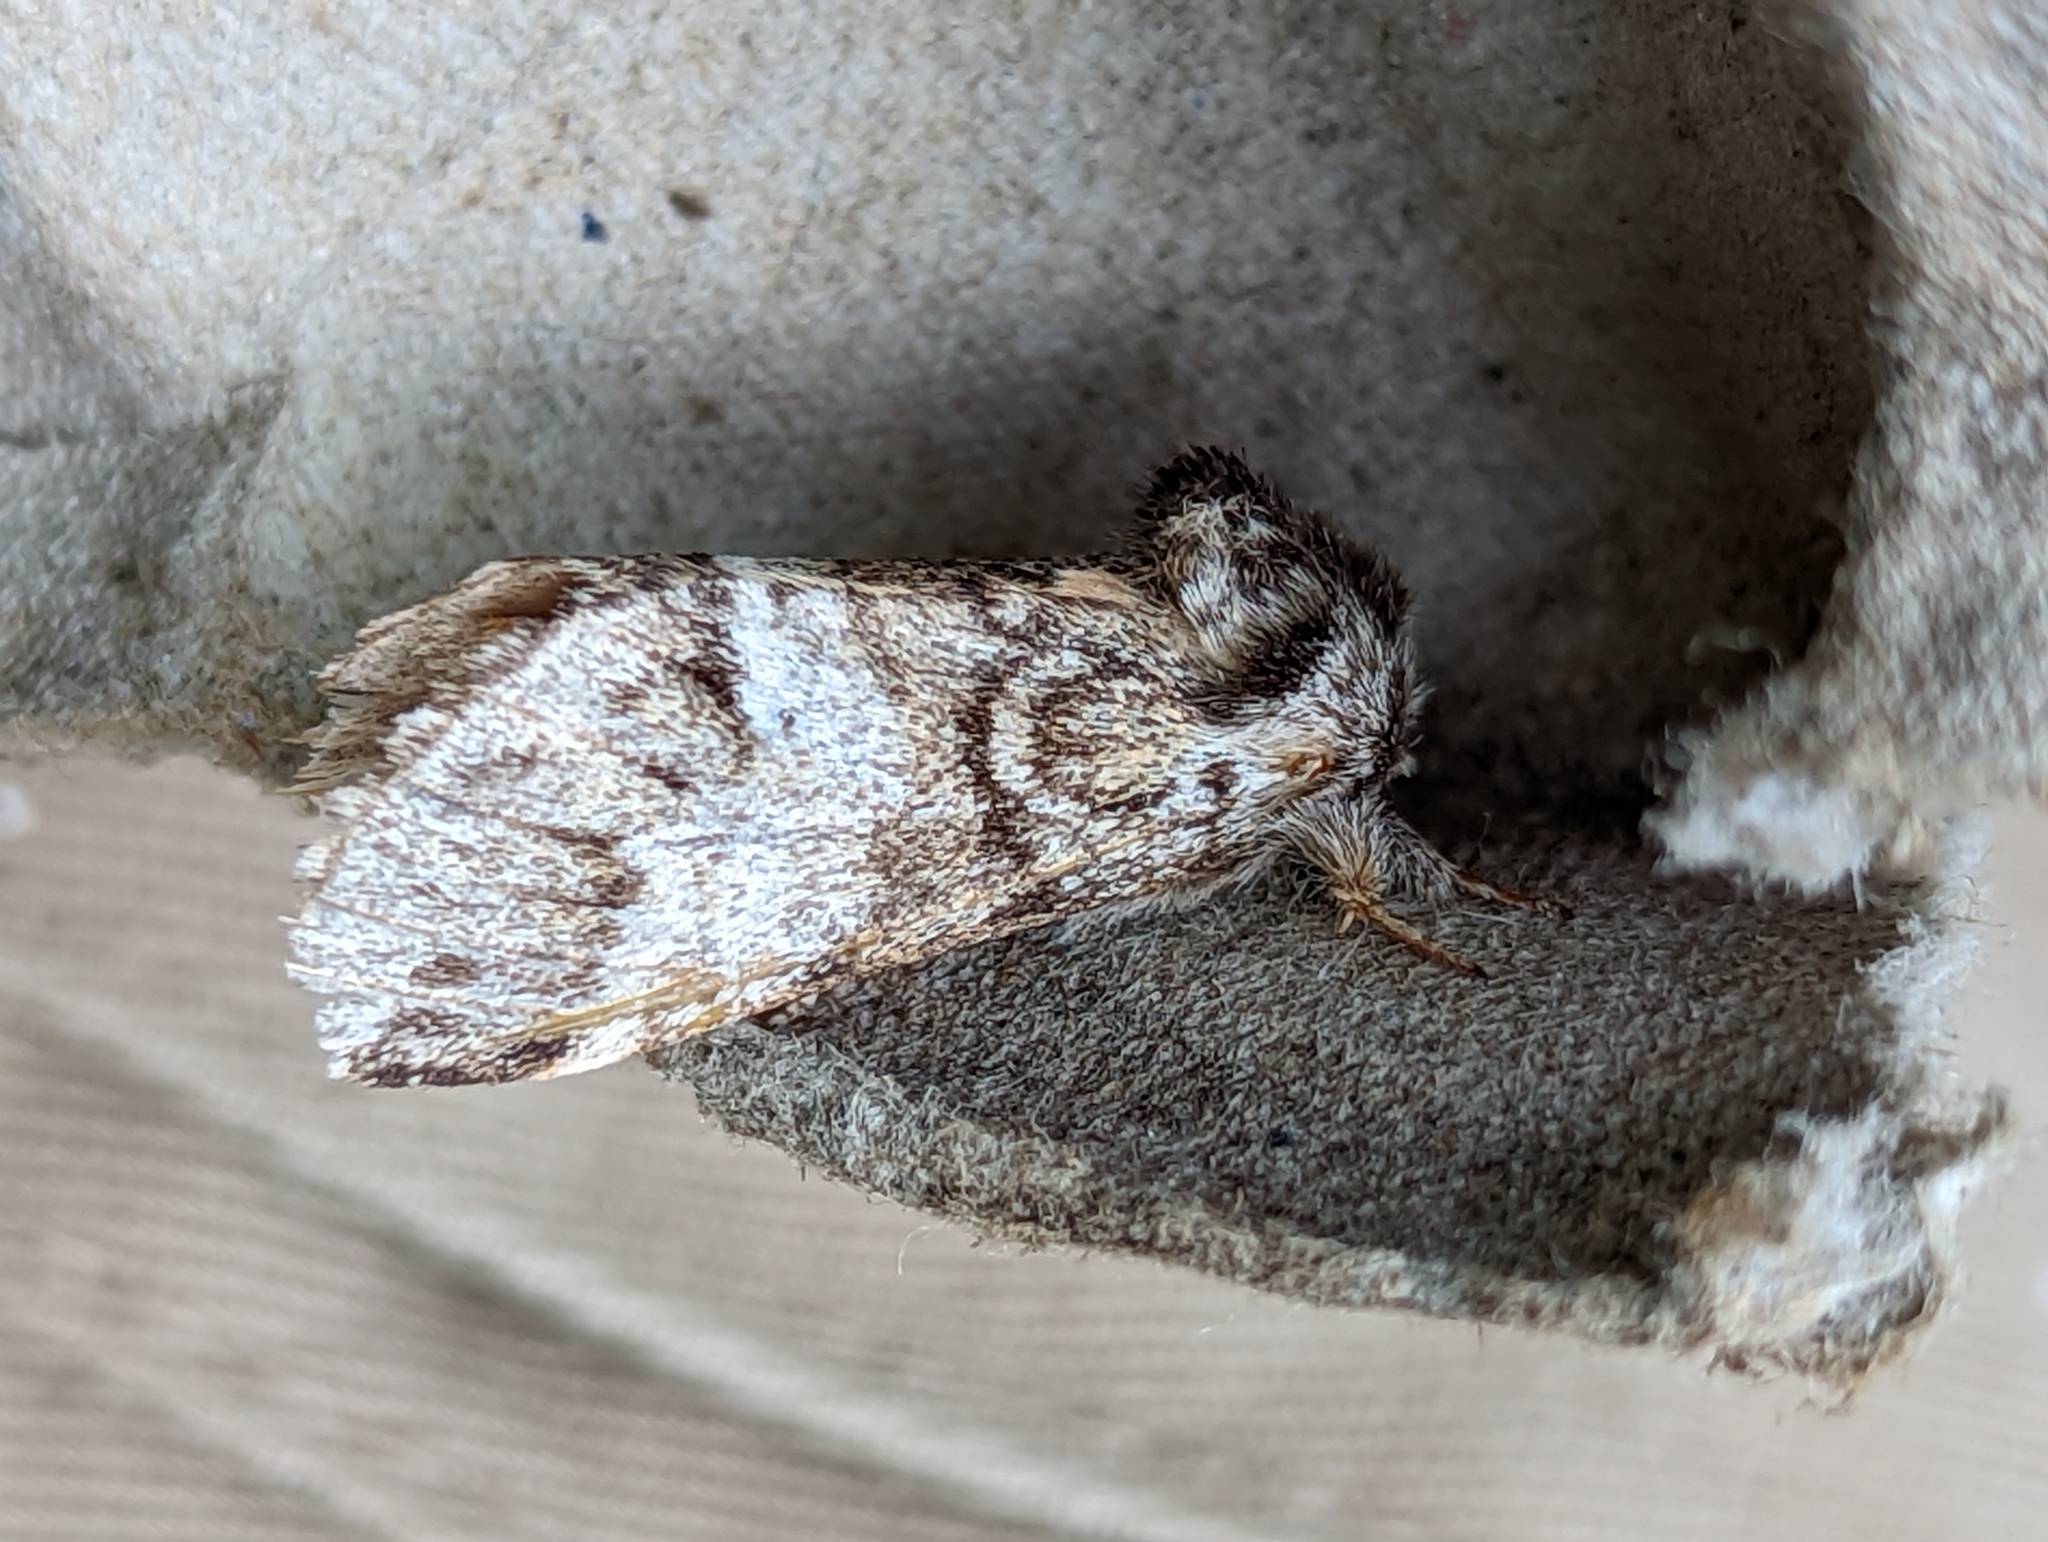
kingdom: Animalia
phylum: Arthropoda
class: Insecta
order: Lepidoptera
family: Notodontidae
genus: Drymonia
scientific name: Drymonia dodonaea
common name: Marbled brown
